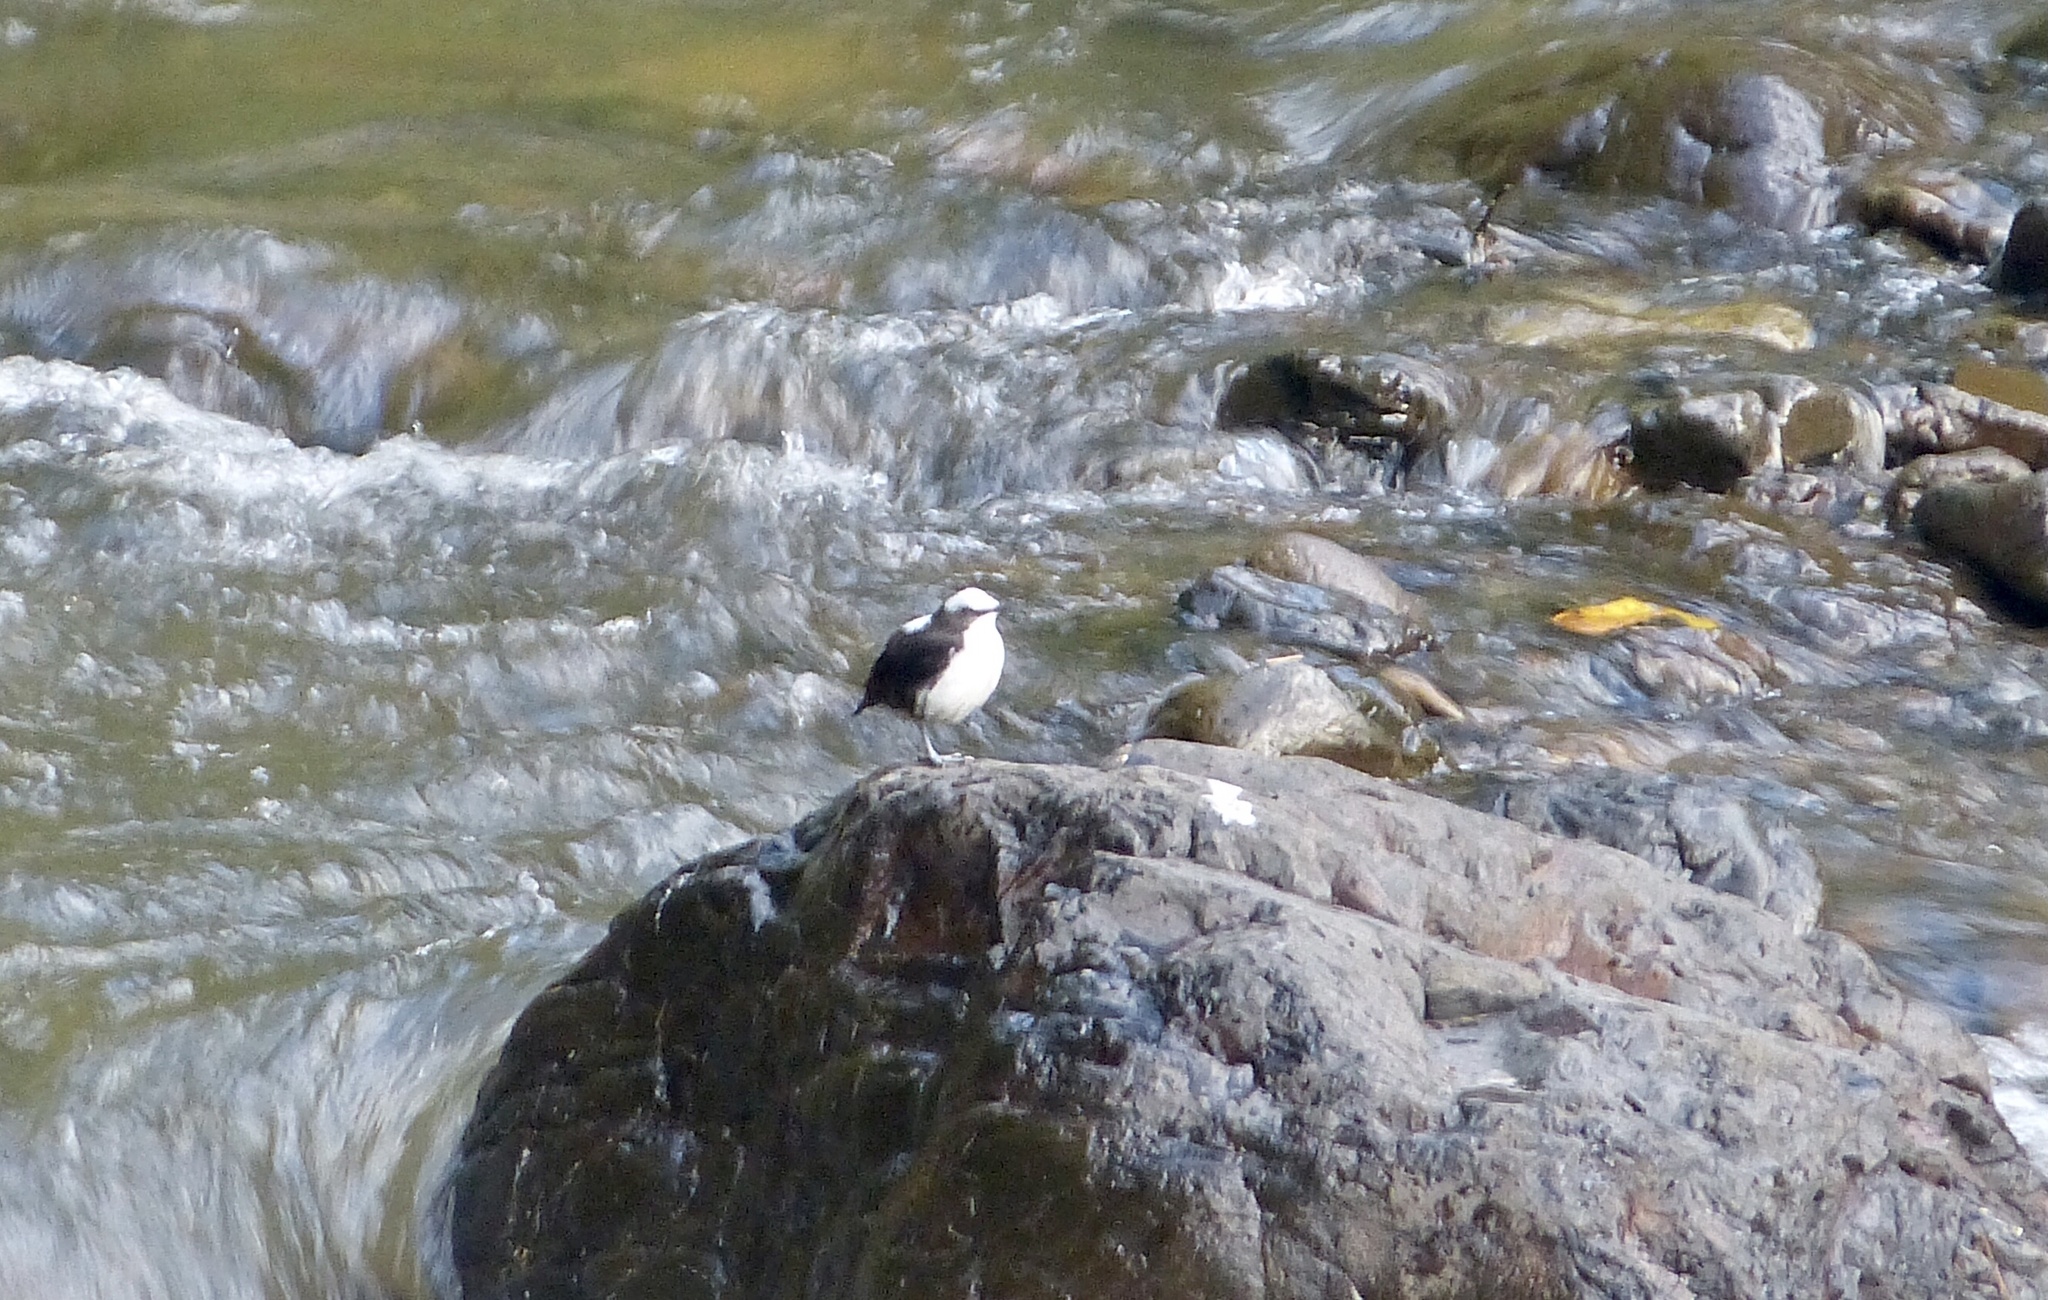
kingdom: Animalia
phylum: Chordata
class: Aves
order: Passeriformes
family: Cinclidae
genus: Cinclus
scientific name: Cinclus leucocephalus
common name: White-capped dipper
